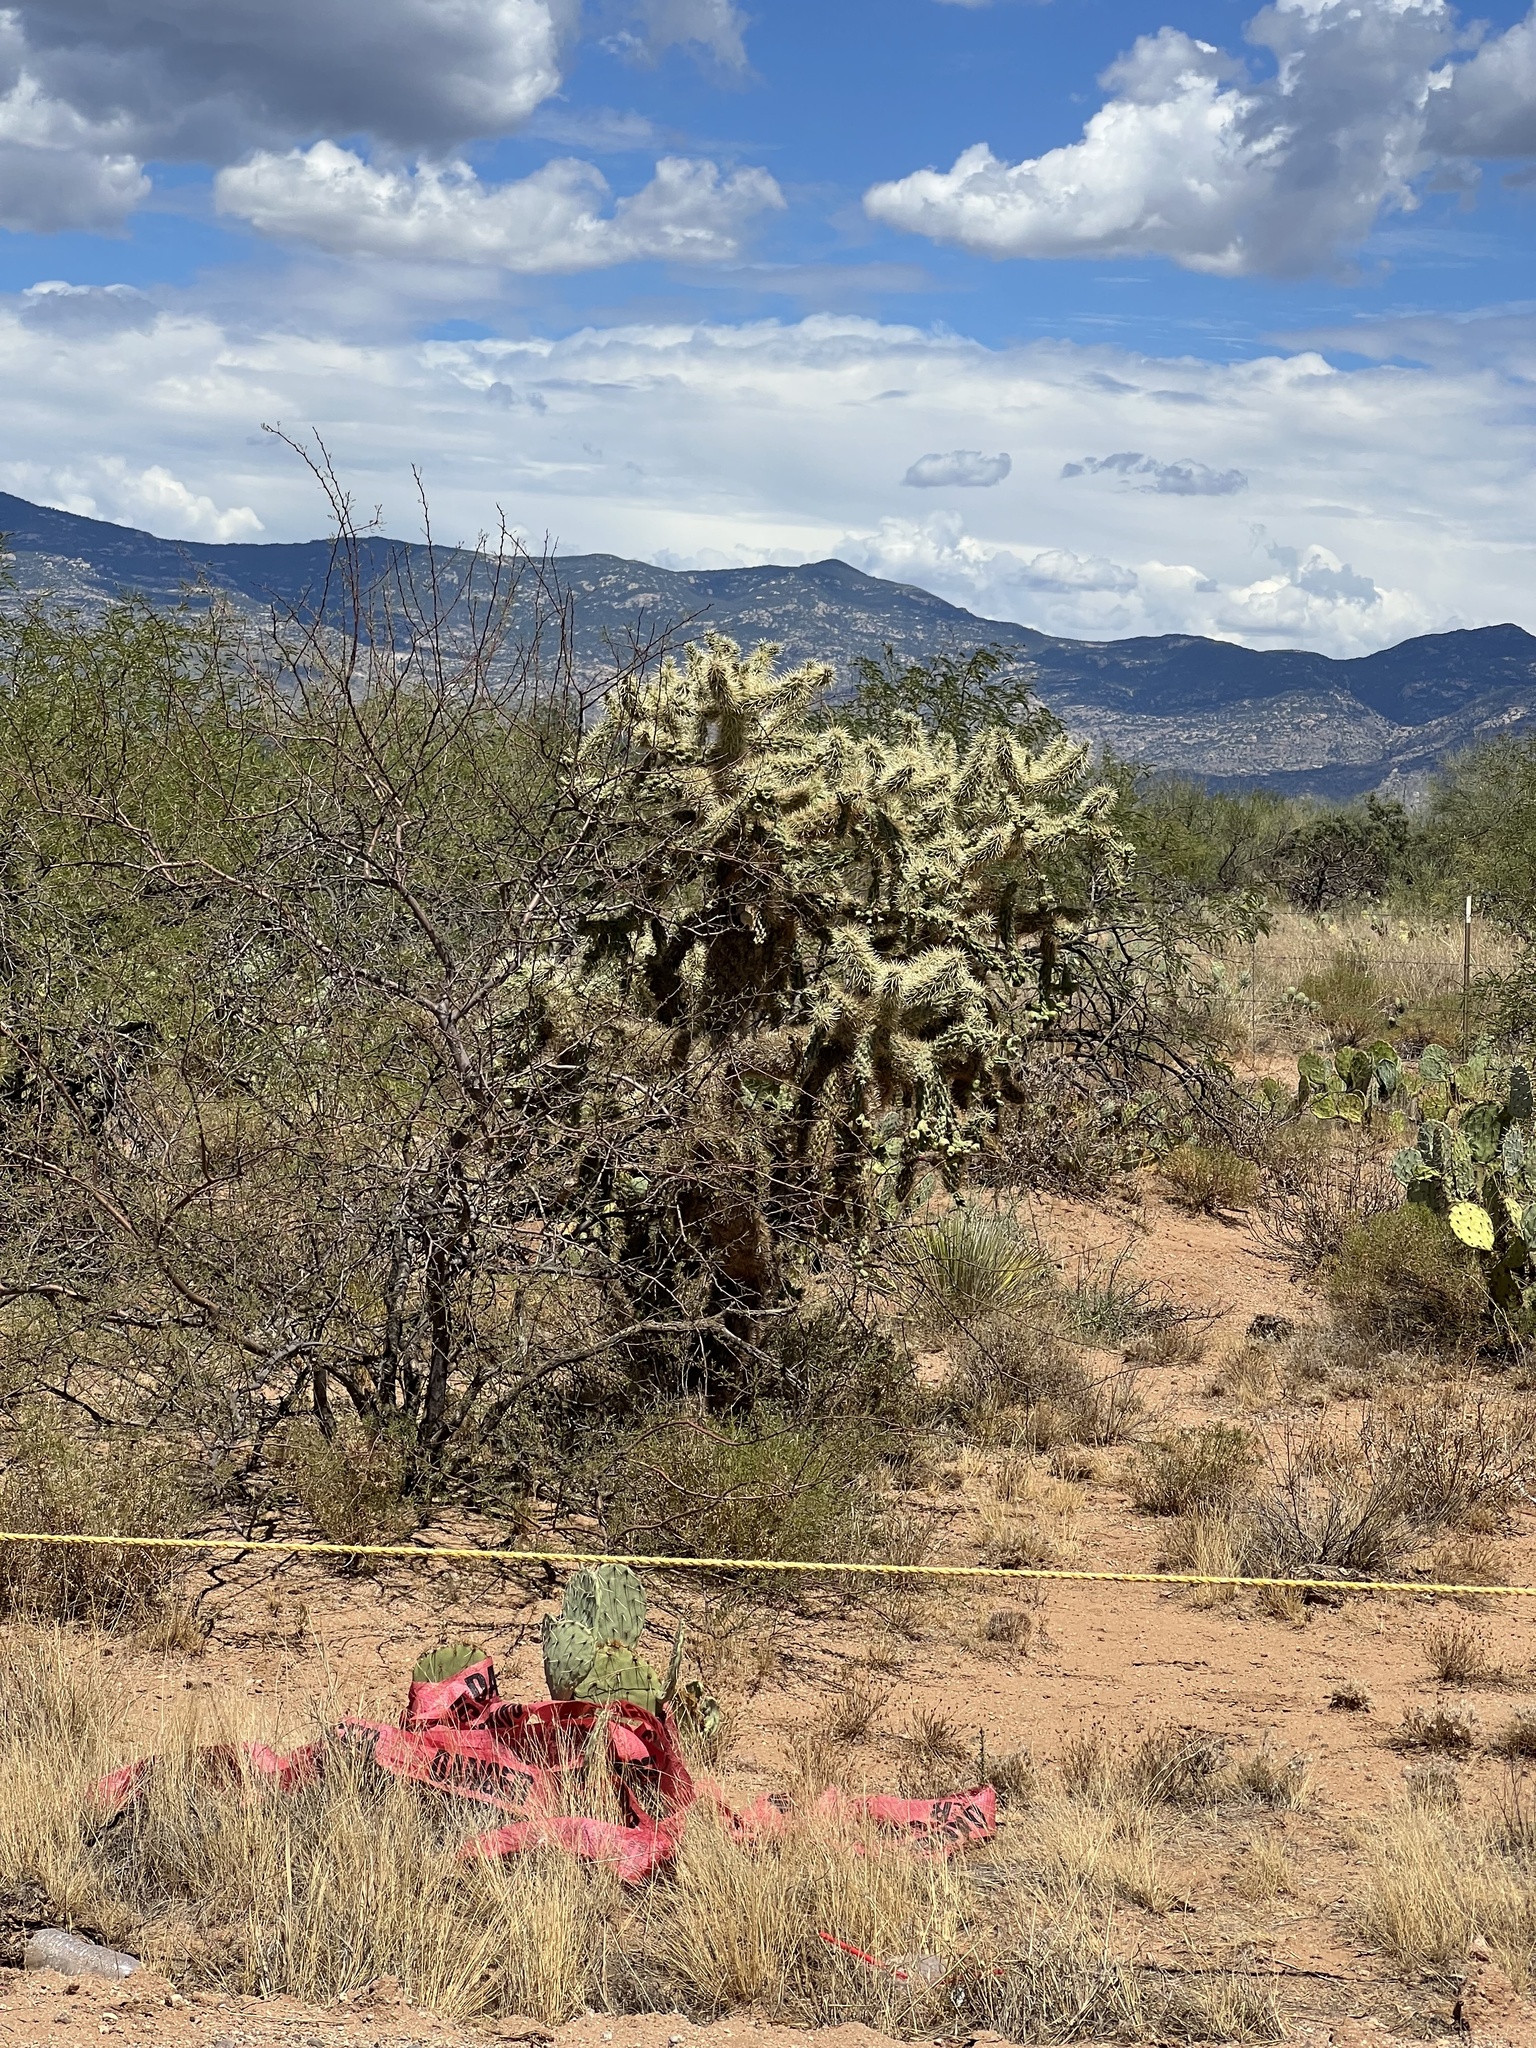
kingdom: Plantae
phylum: Tracheophyta
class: Magnoliopsida
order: Caryophyllales
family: Cactaceae
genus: Cylindropuntia
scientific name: Cylindropuntia fulgida
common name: Jumping cholla
